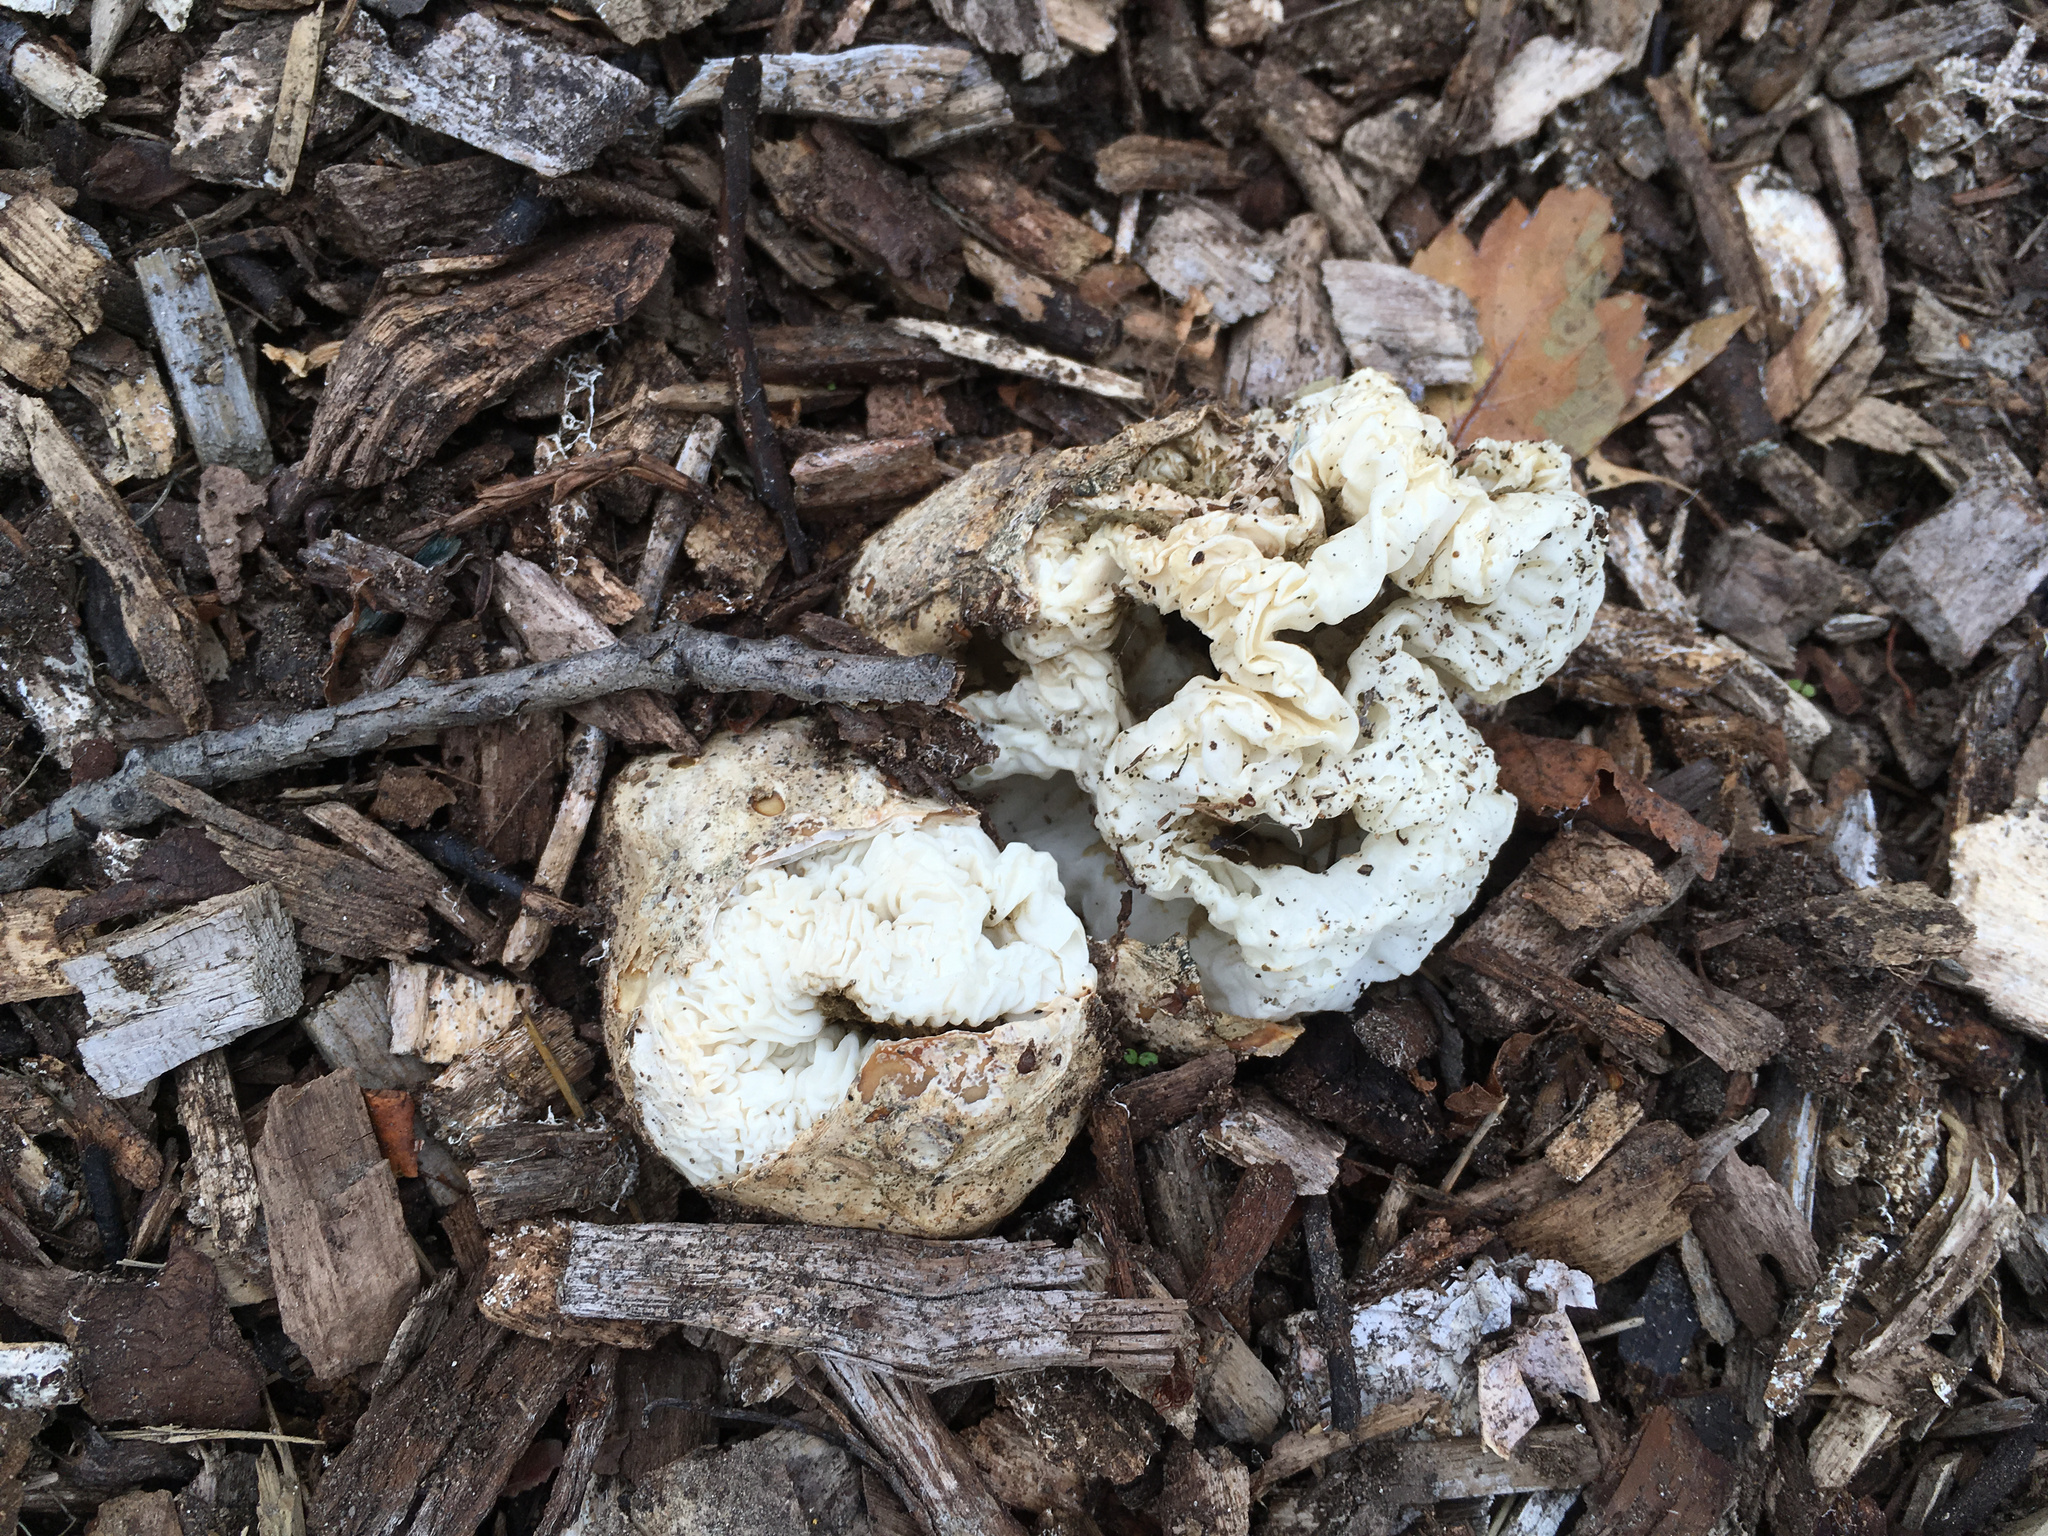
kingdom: Fungi
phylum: Basidiomycota
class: Agaricomycetes
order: Phallales
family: Phallaceae
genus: Ileodictyon
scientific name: Ileodictyon cibarium
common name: Basket fungus
